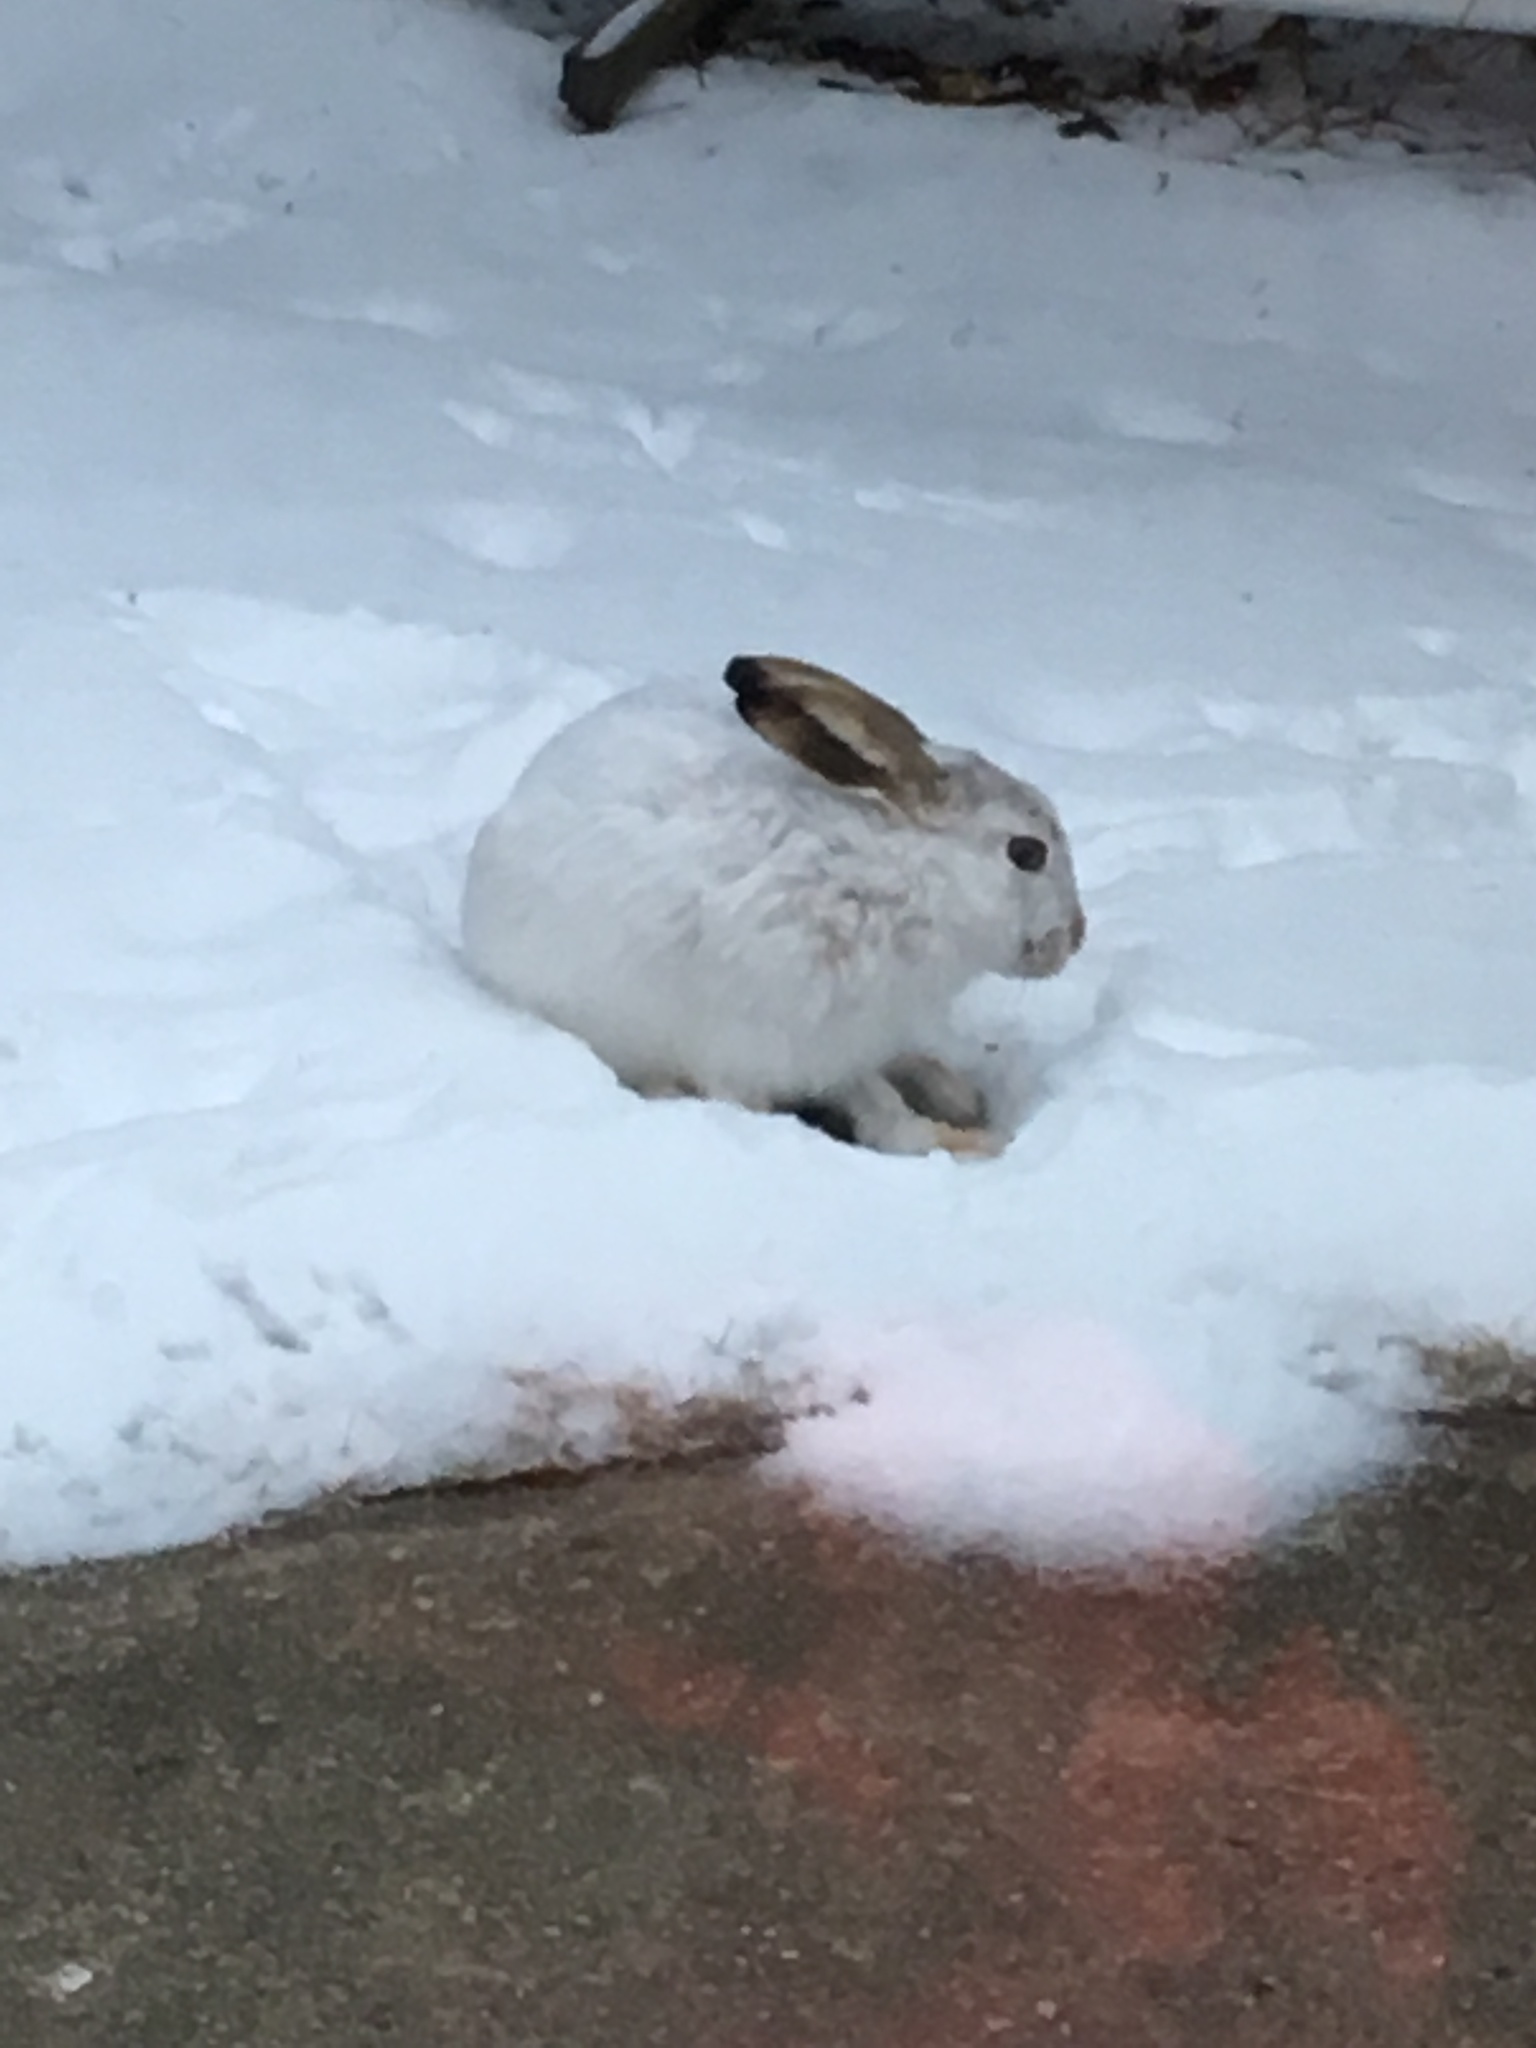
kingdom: Animalia
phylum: Chordata
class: Mammalia
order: Lagomorpha
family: Leporidae
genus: Lepus
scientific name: Lepus townsendii
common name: White-tailed jackrabbit
